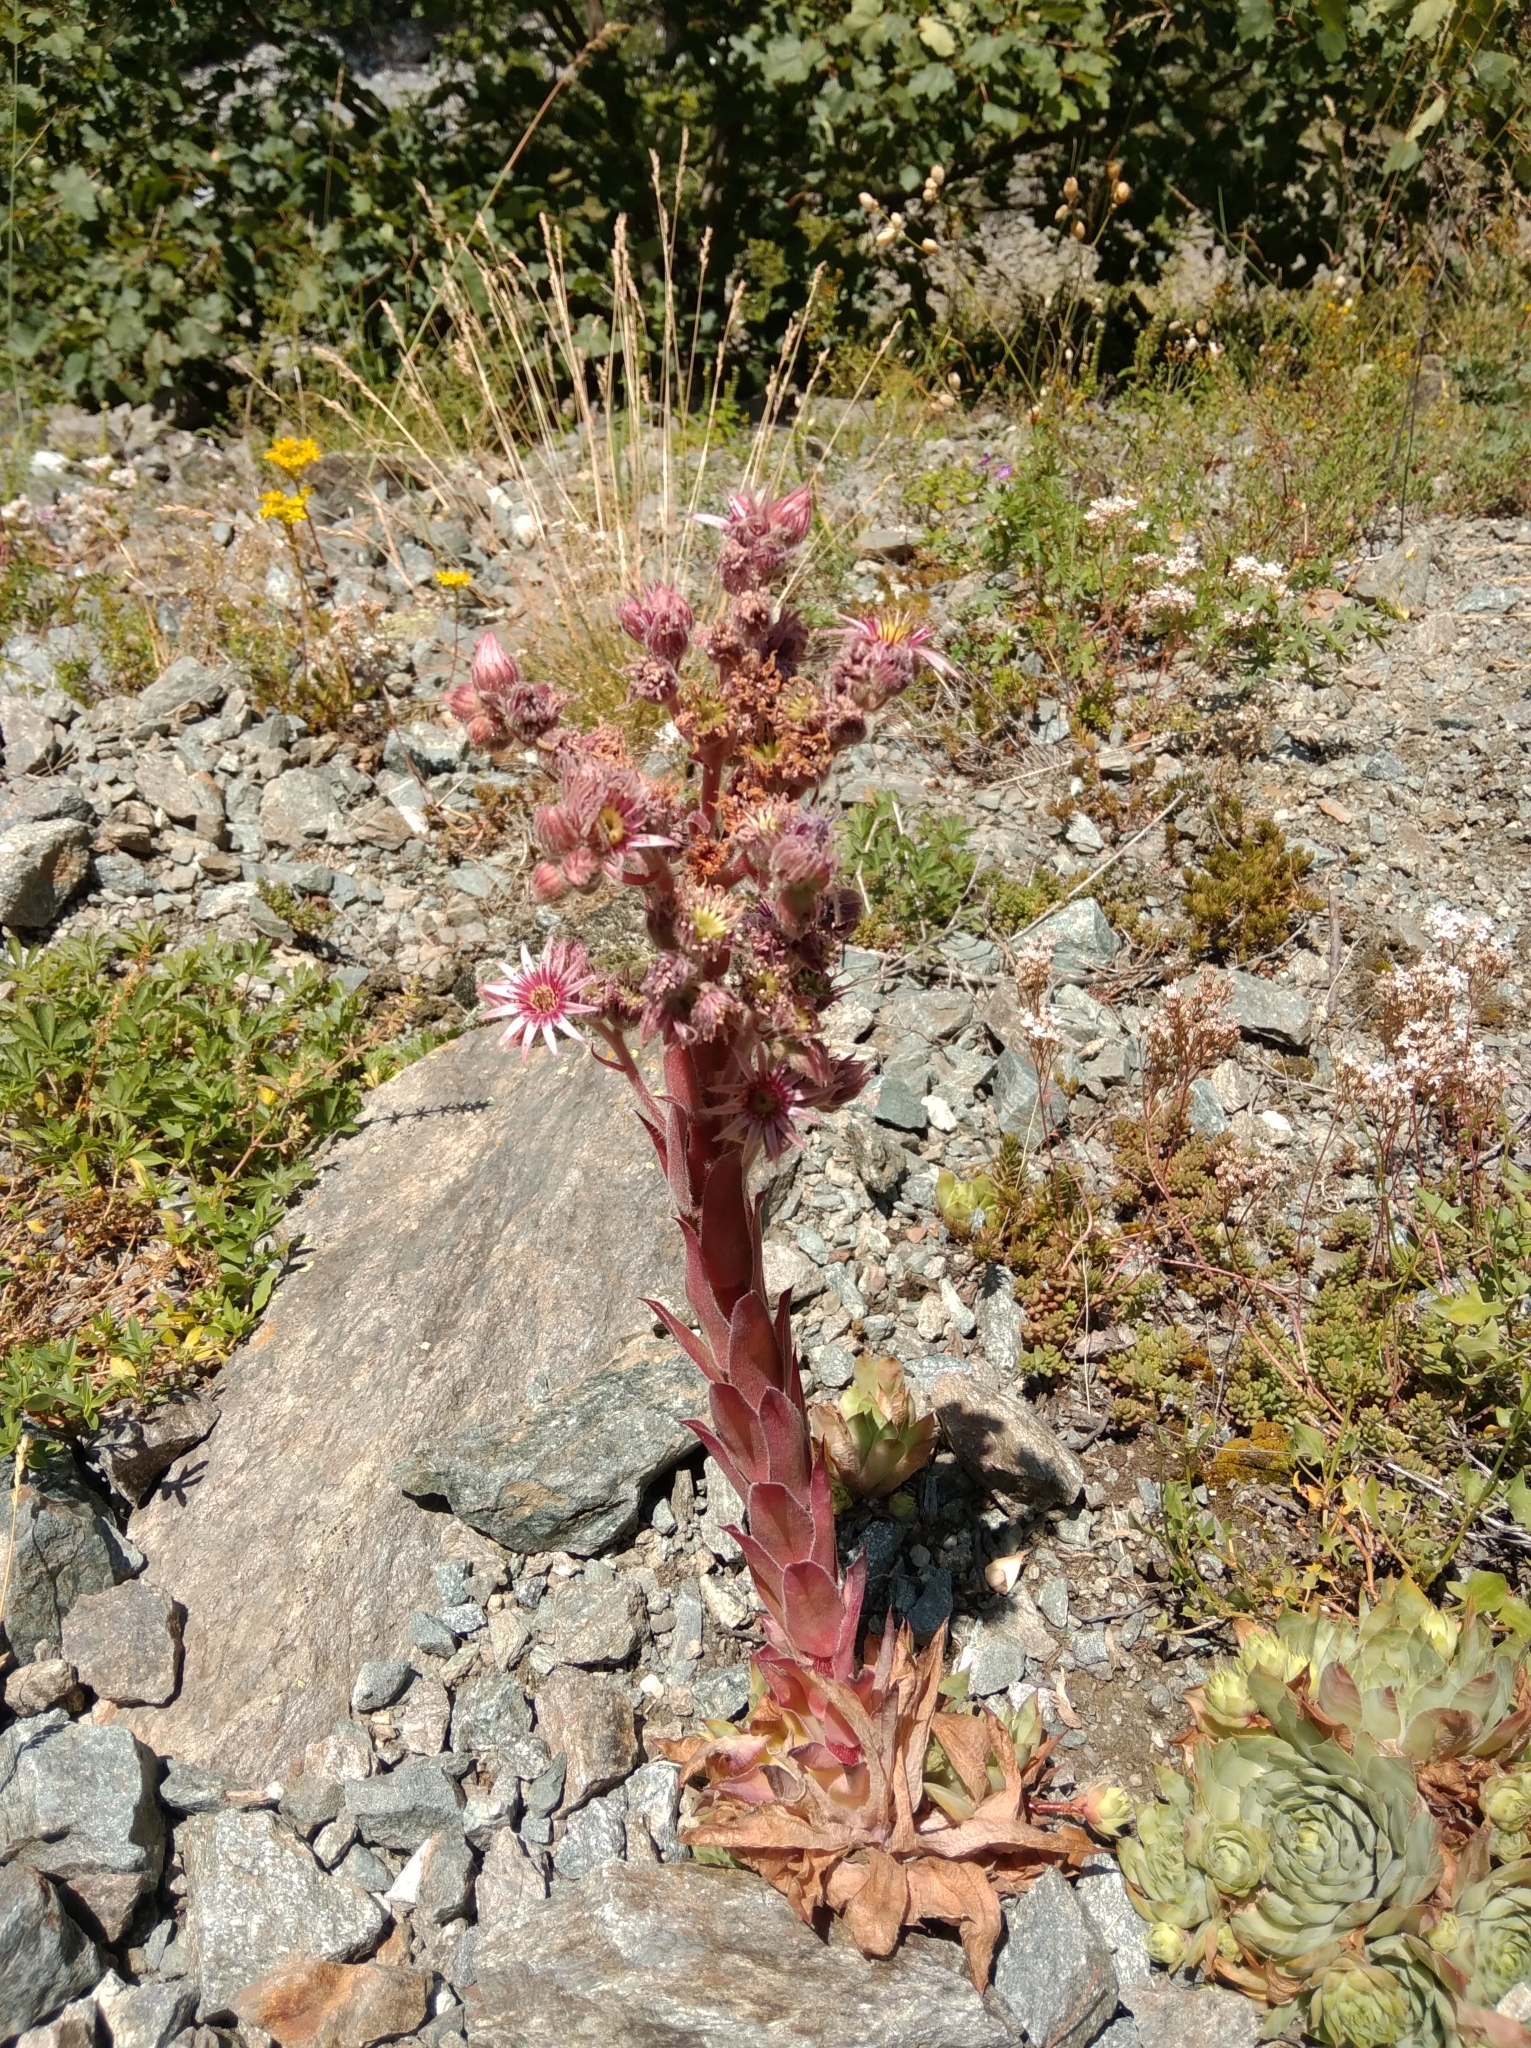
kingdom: Plantae
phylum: Tracheophyta
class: Magnoliopsida
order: Saxifragales
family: Crassulaceae
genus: Sempervivum
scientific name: Sempervivum tectorum
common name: House-leek
